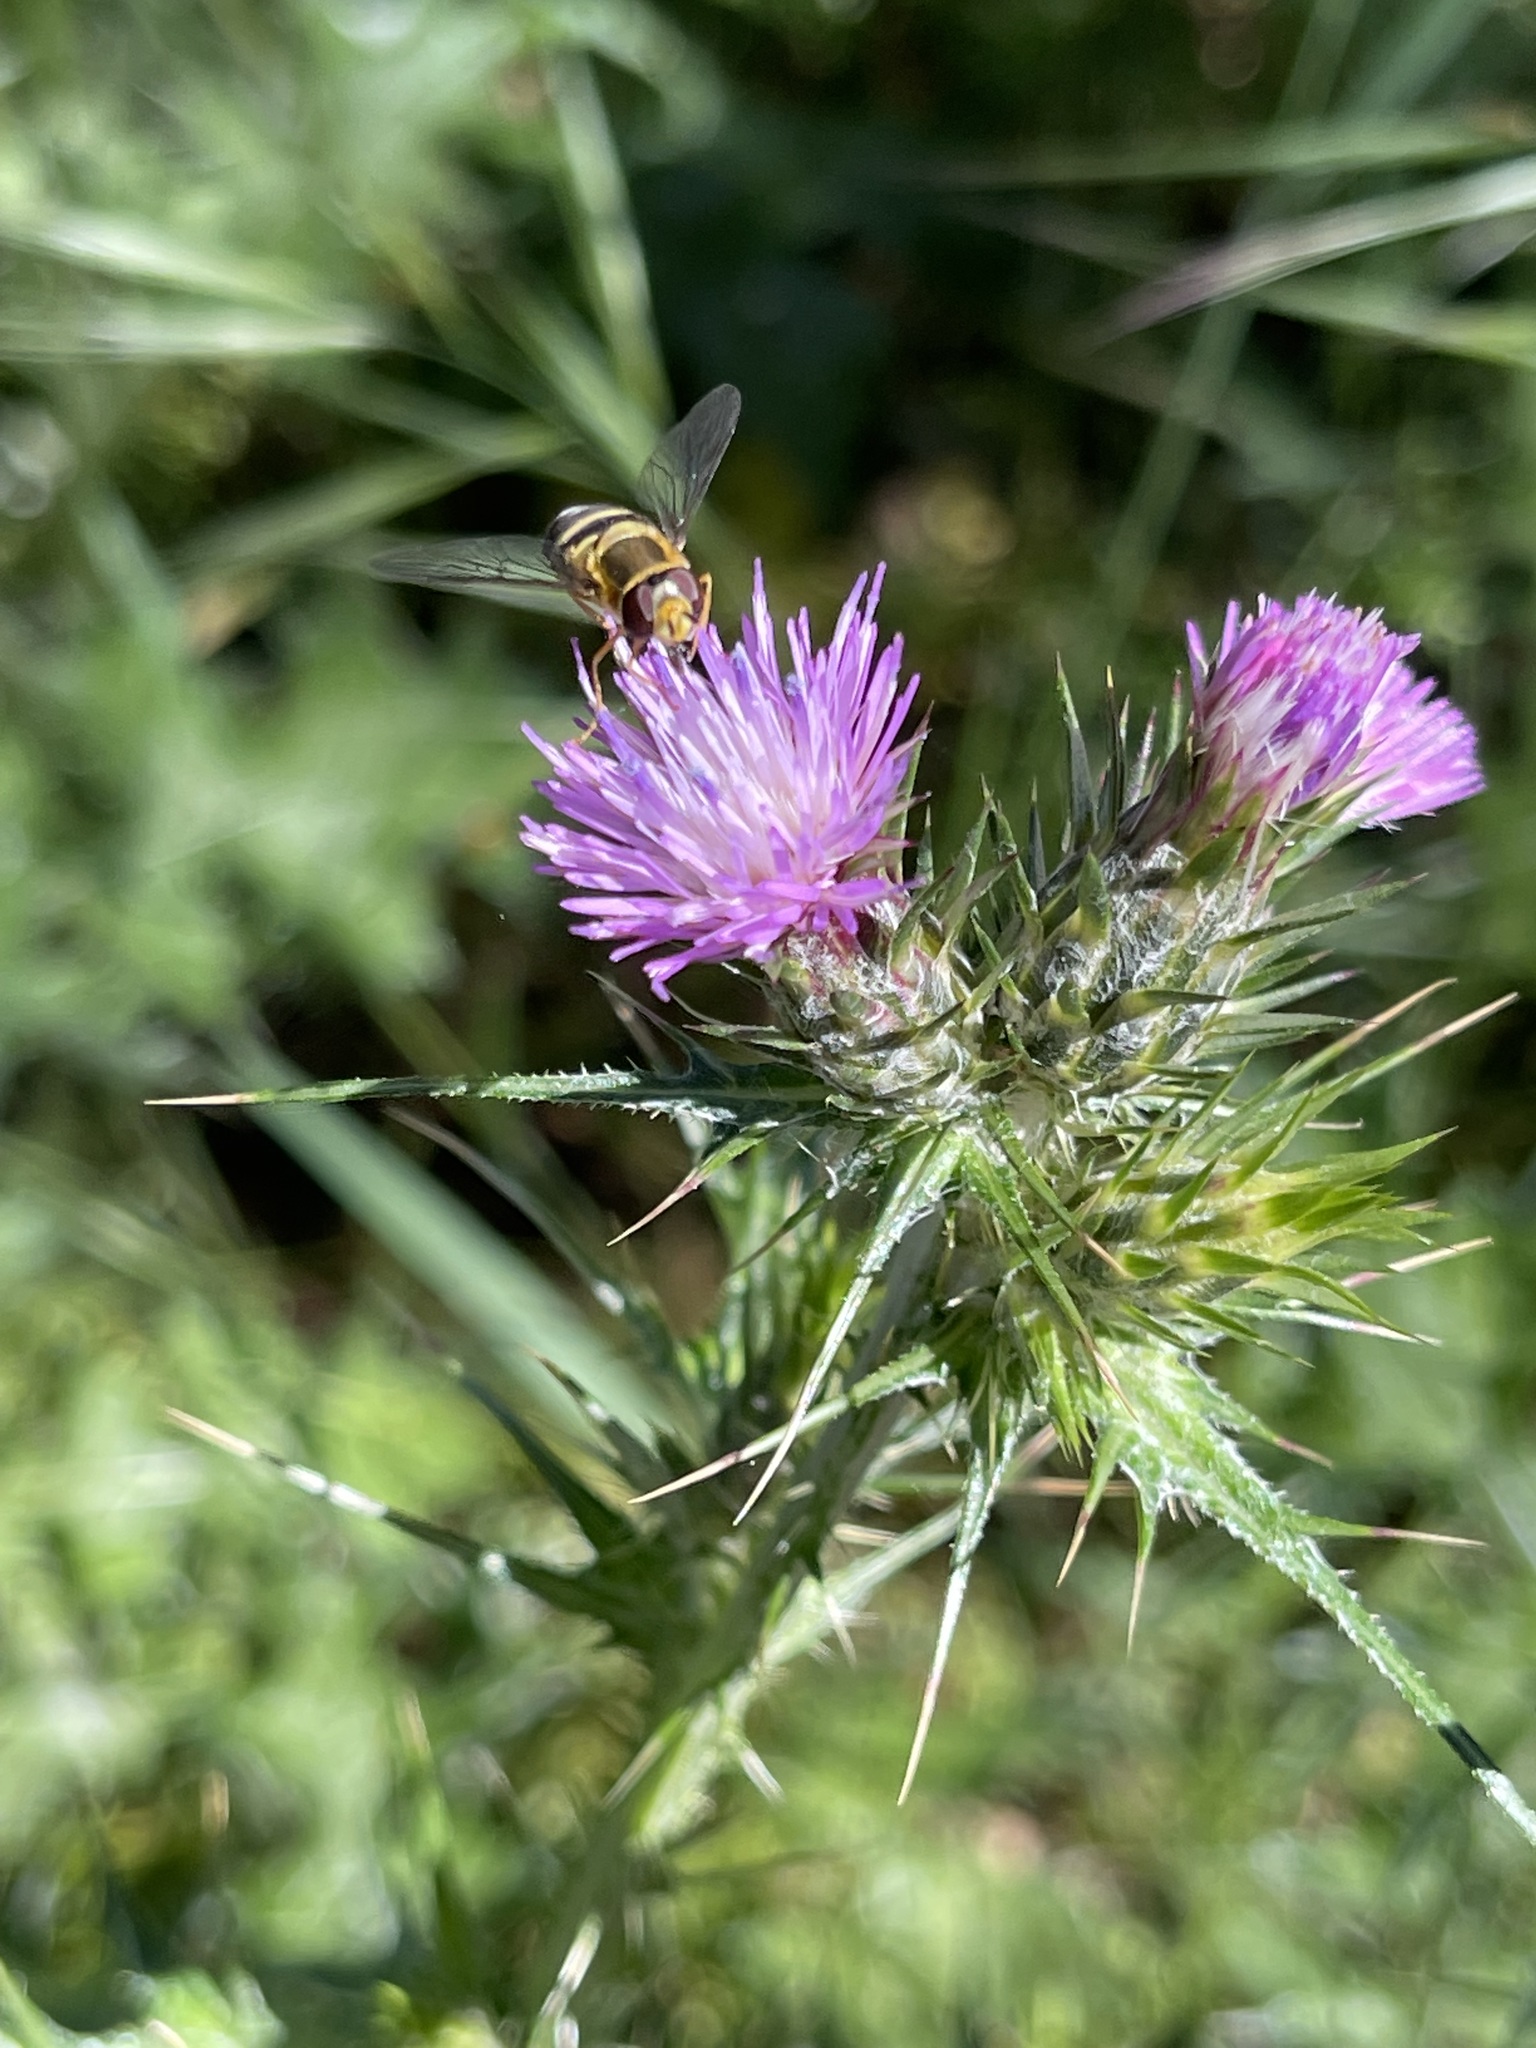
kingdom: Plantae
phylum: Tracheophyta
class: Magnoliopsida
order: Asterales
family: Asteraceae
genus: Carduus
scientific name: Carduus pycnocephalus
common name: Plymouth thistle
